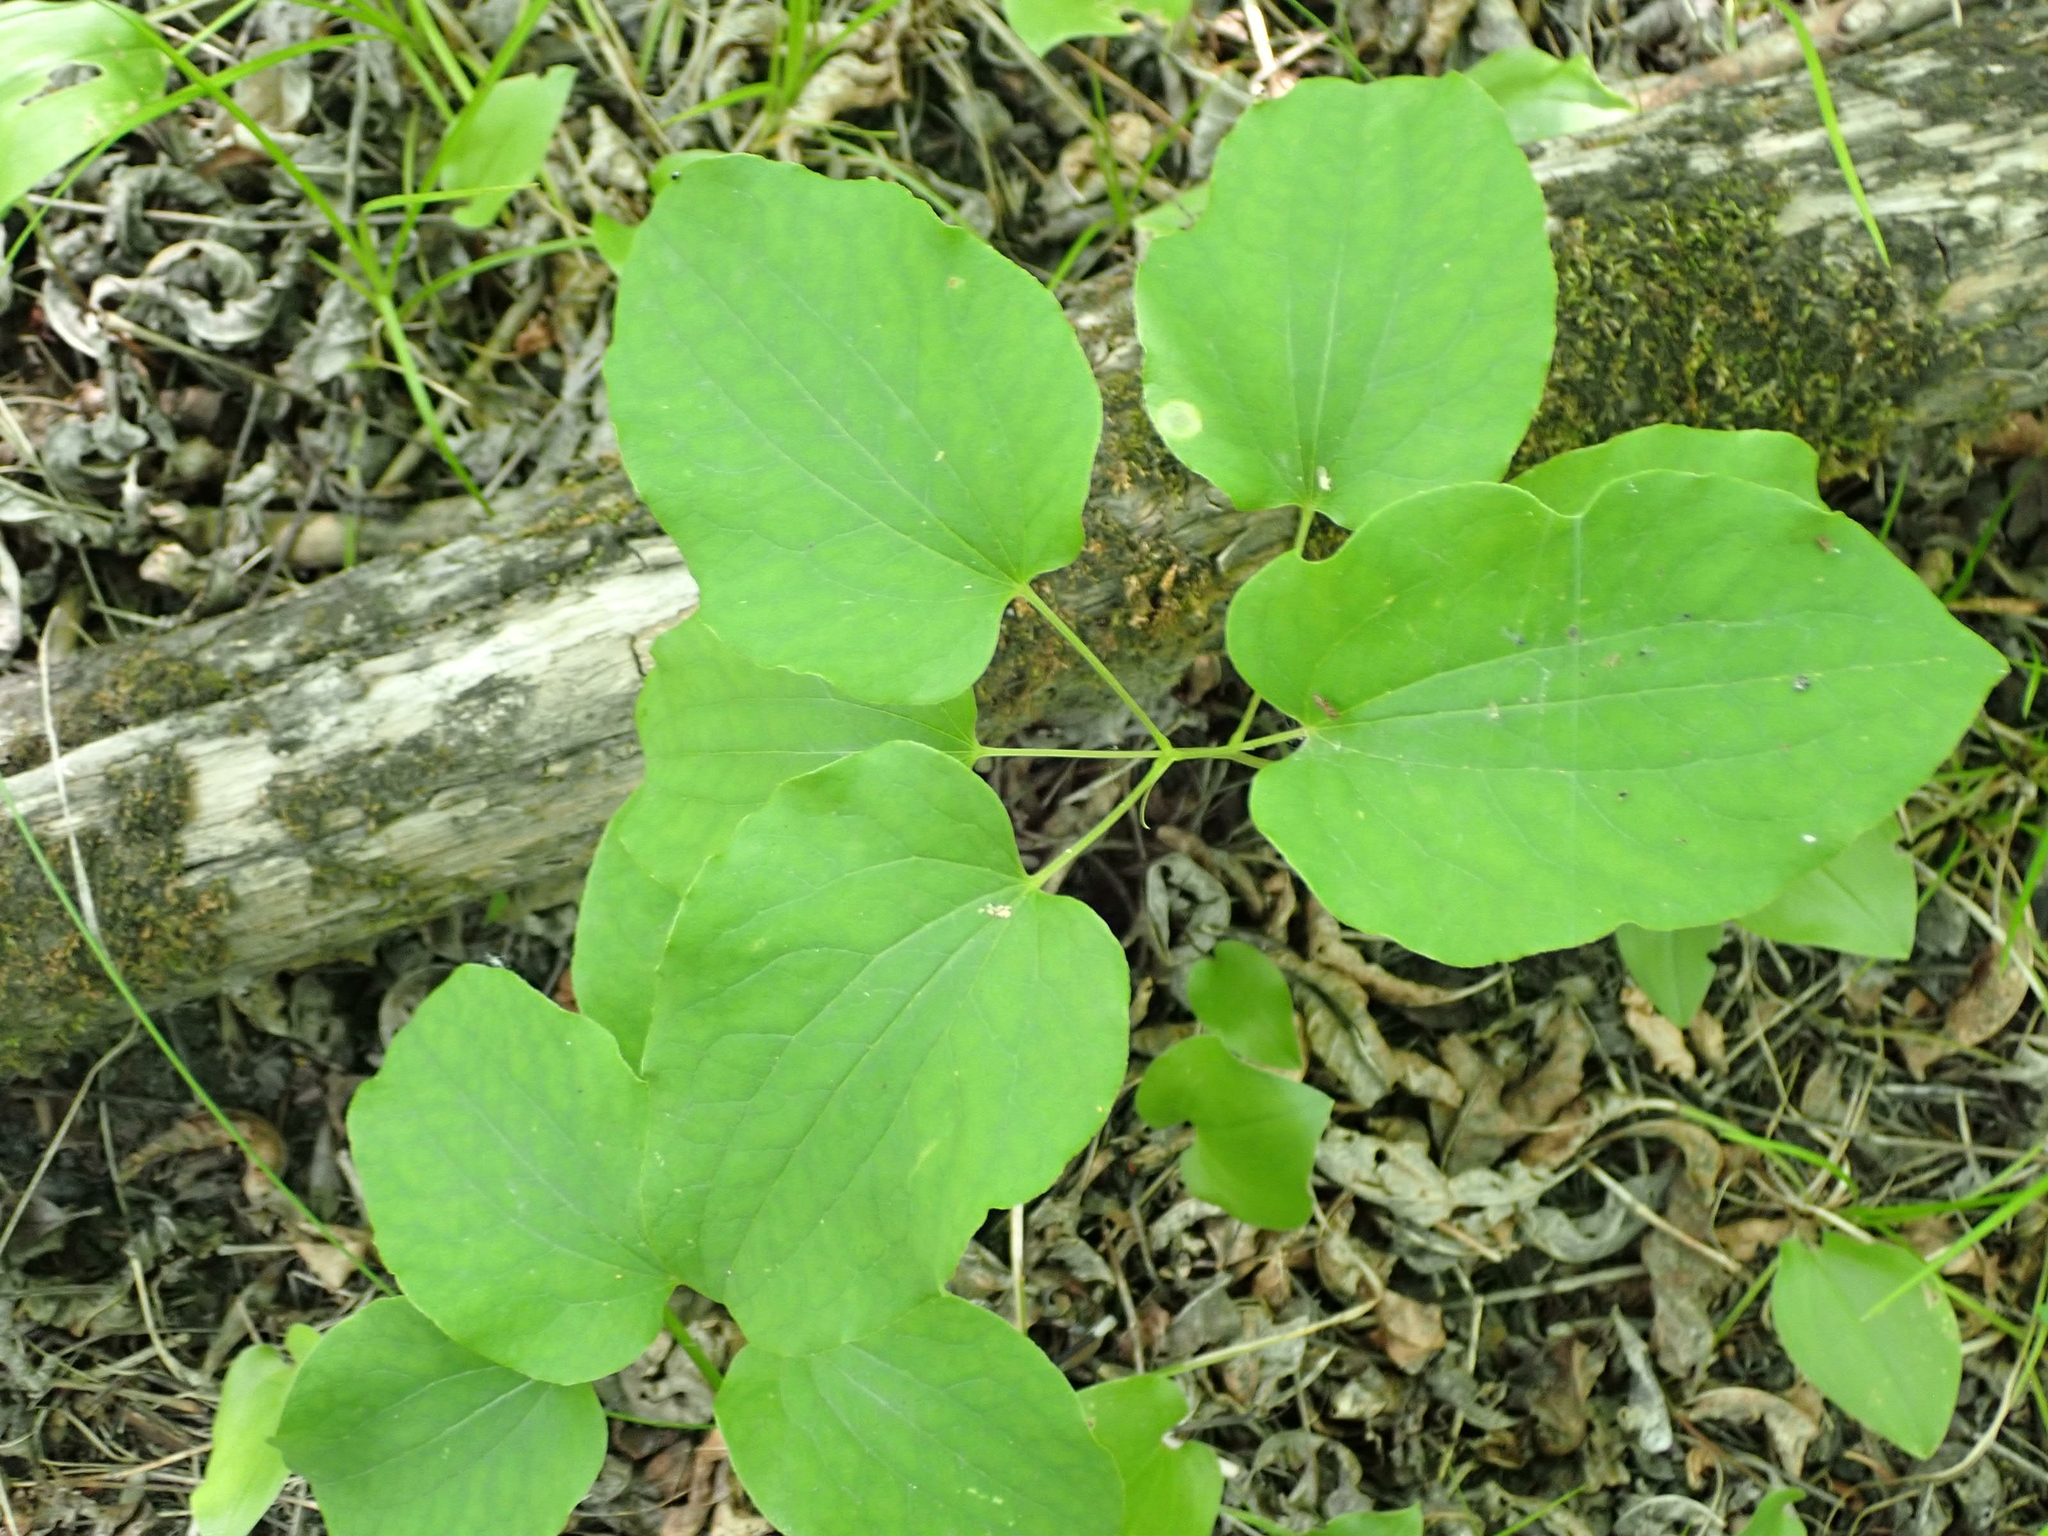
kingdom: Plantae
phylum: Tracheophyta
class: Liliopsida
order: Liliales
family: Smilacaceae
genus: Smilax
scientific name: Smilax lasioneura
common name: Blue ridge carrionflower
